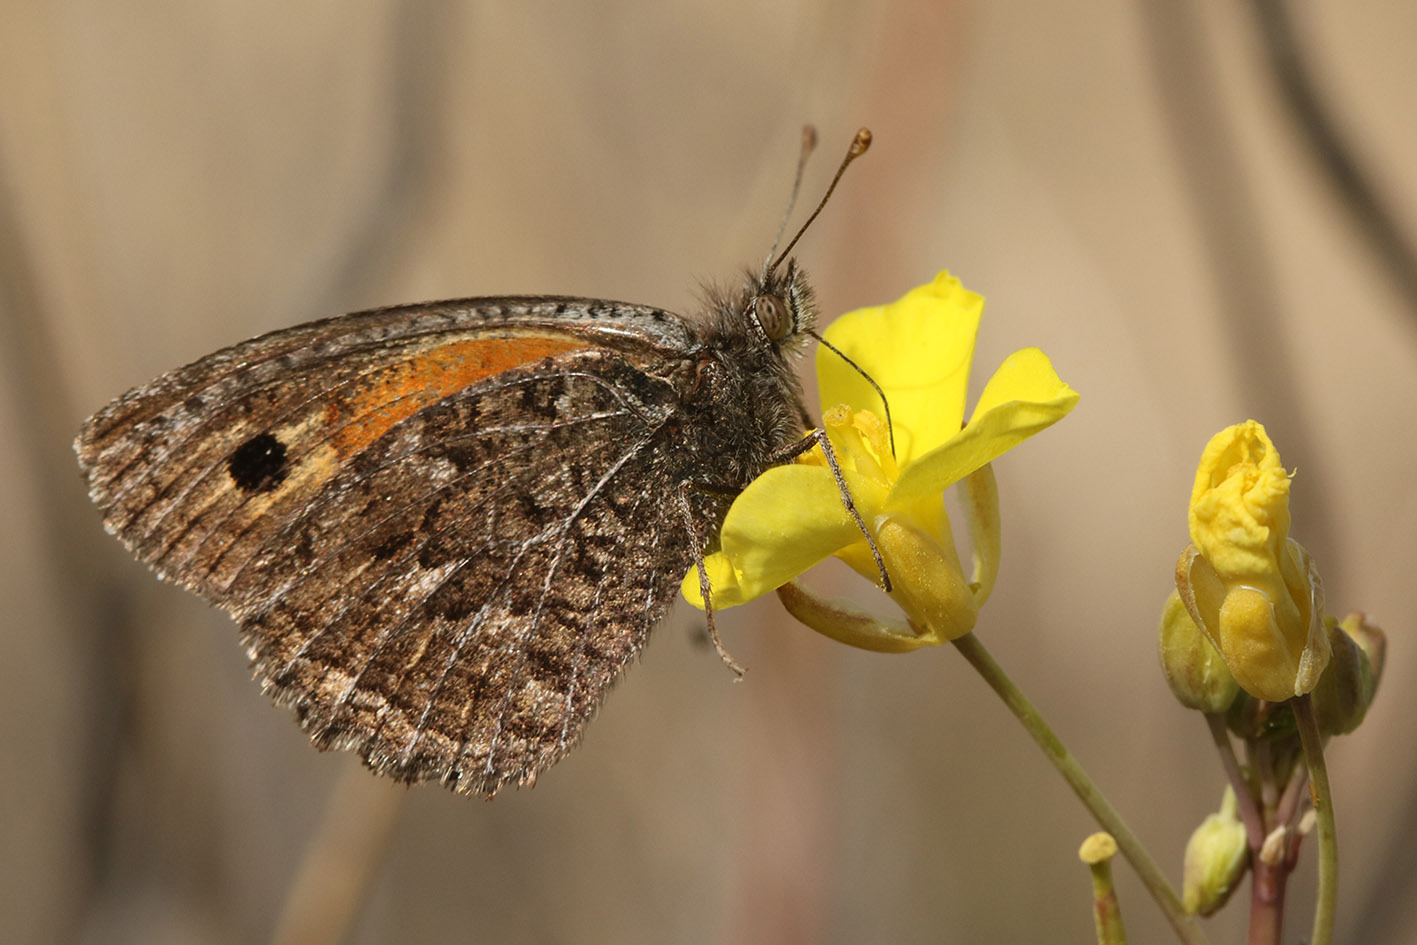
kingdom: Animalia
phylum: Arthropoda
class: Insecta
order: Lepidoptera
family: Nymphalidae
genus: Argyrophorus
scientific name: Argyrophorus
